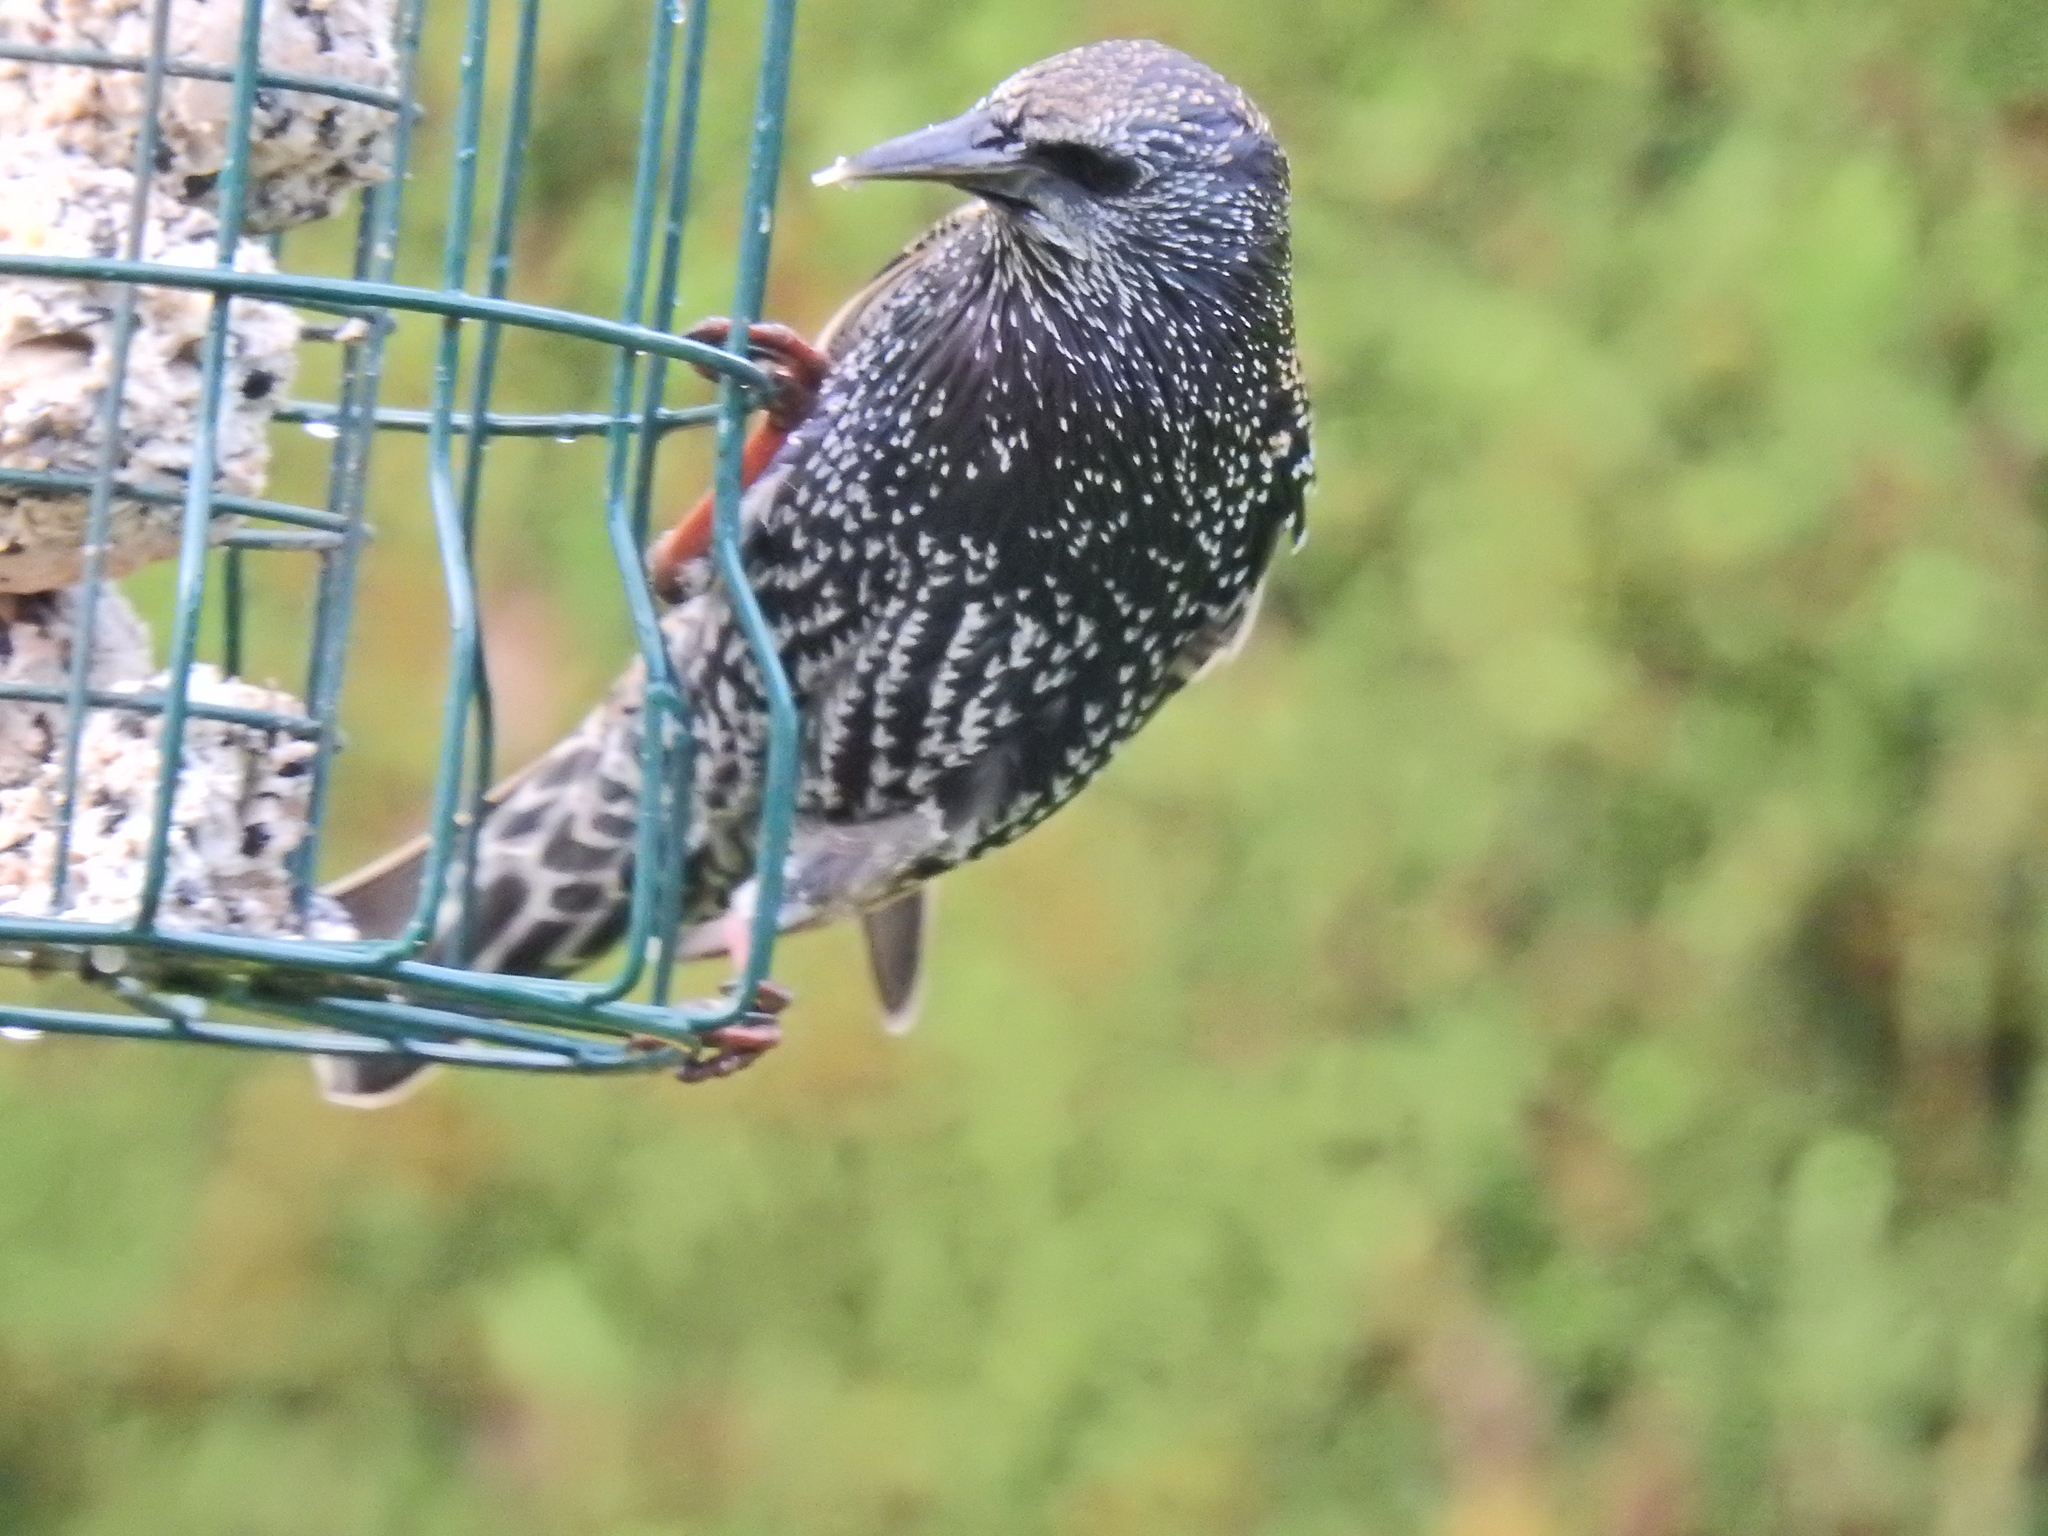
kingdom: Animalia
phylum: Chordata
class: Aves
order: Passeriformes
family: Sturnidae
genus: Sturnus
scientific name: Sturnus vulgaris
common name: Common starling
